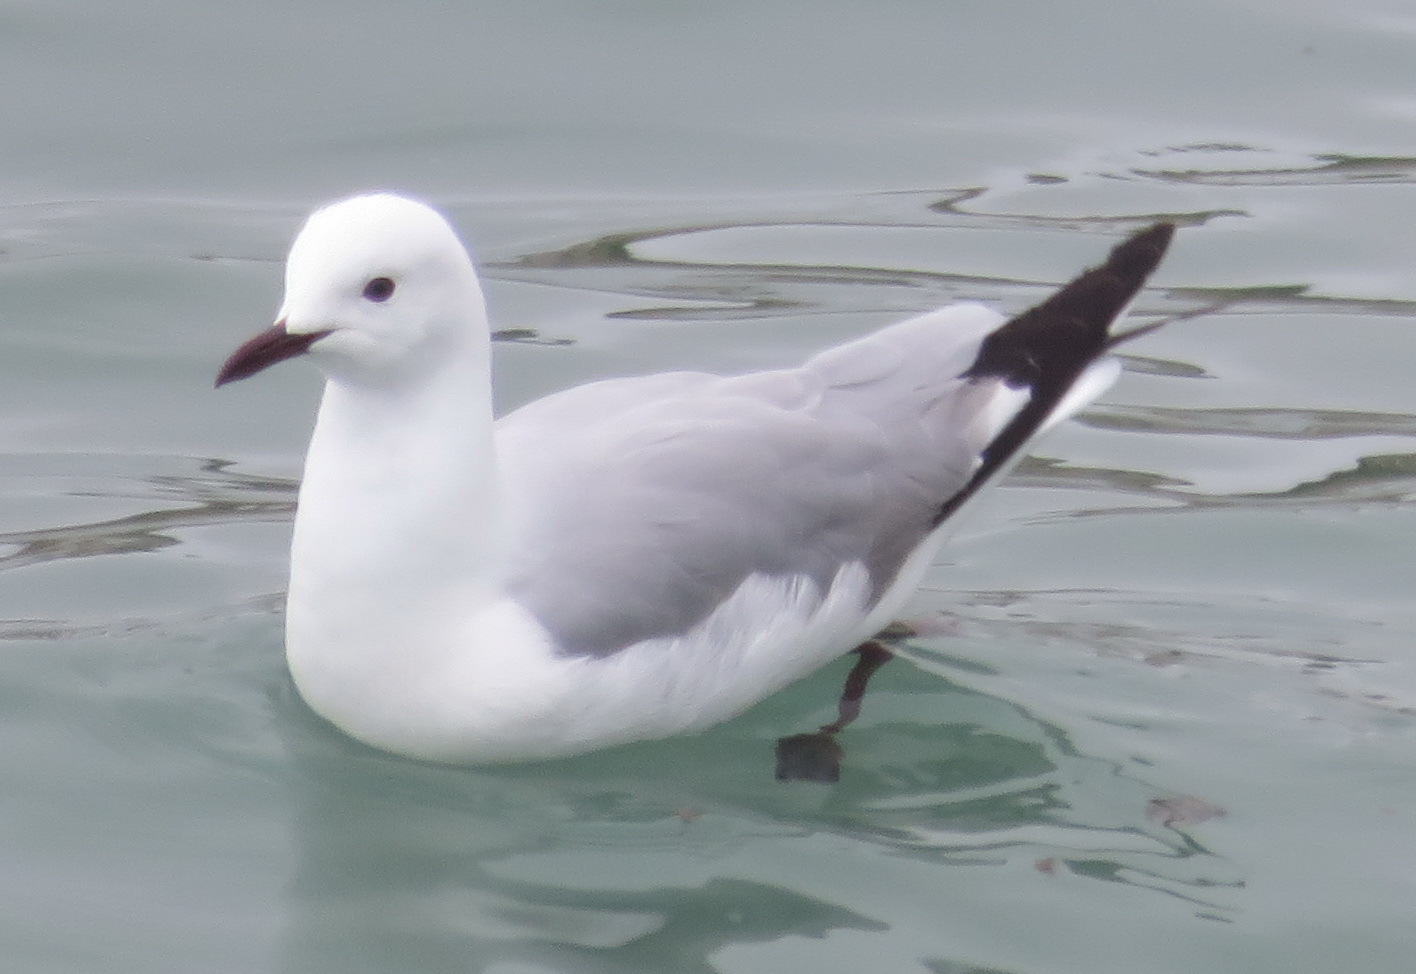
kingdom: Animalia
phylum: Chordata
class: Aves
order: Charadriiformes
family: Laridae
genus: Chroicocephalus
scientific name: Chroicocephalus hartlaubii
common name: Hartlaub's gull
